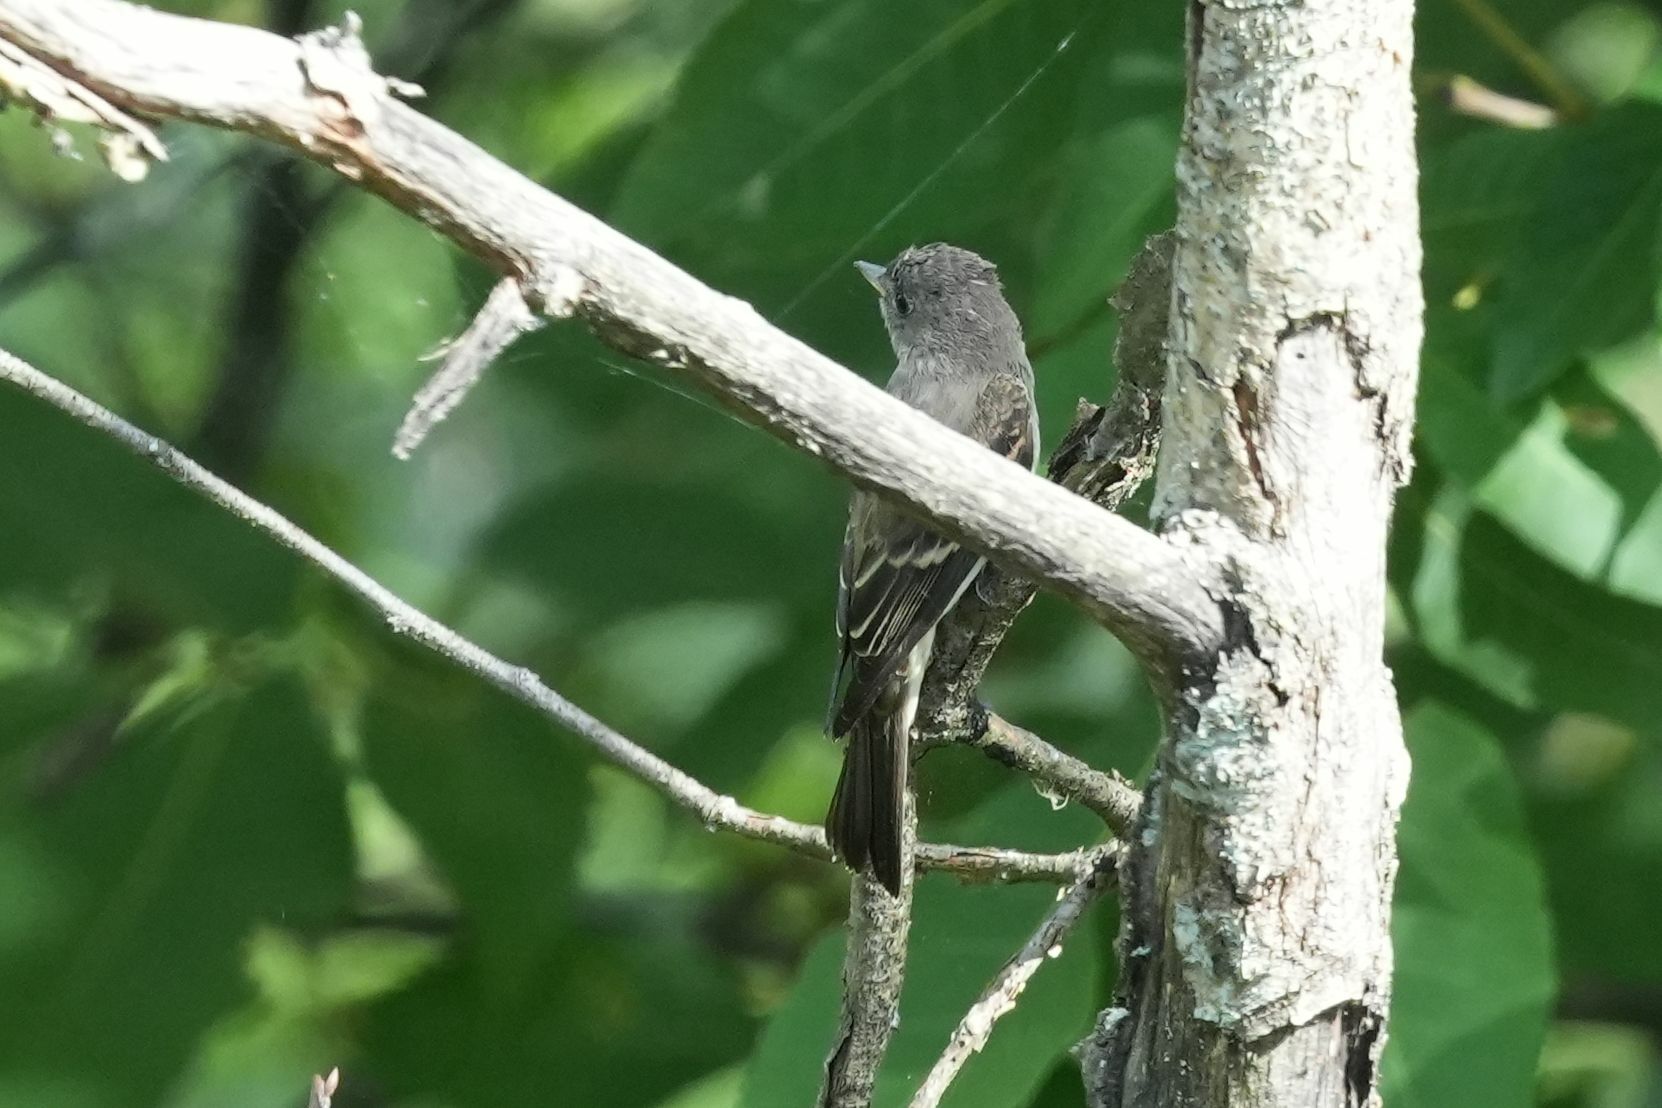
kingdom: Animalia
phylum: Chordata
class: Aves
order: Passeriformes
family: Tyrannidae
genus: Contopus
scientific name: Contopus virens
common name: Eastern wood-pewee
